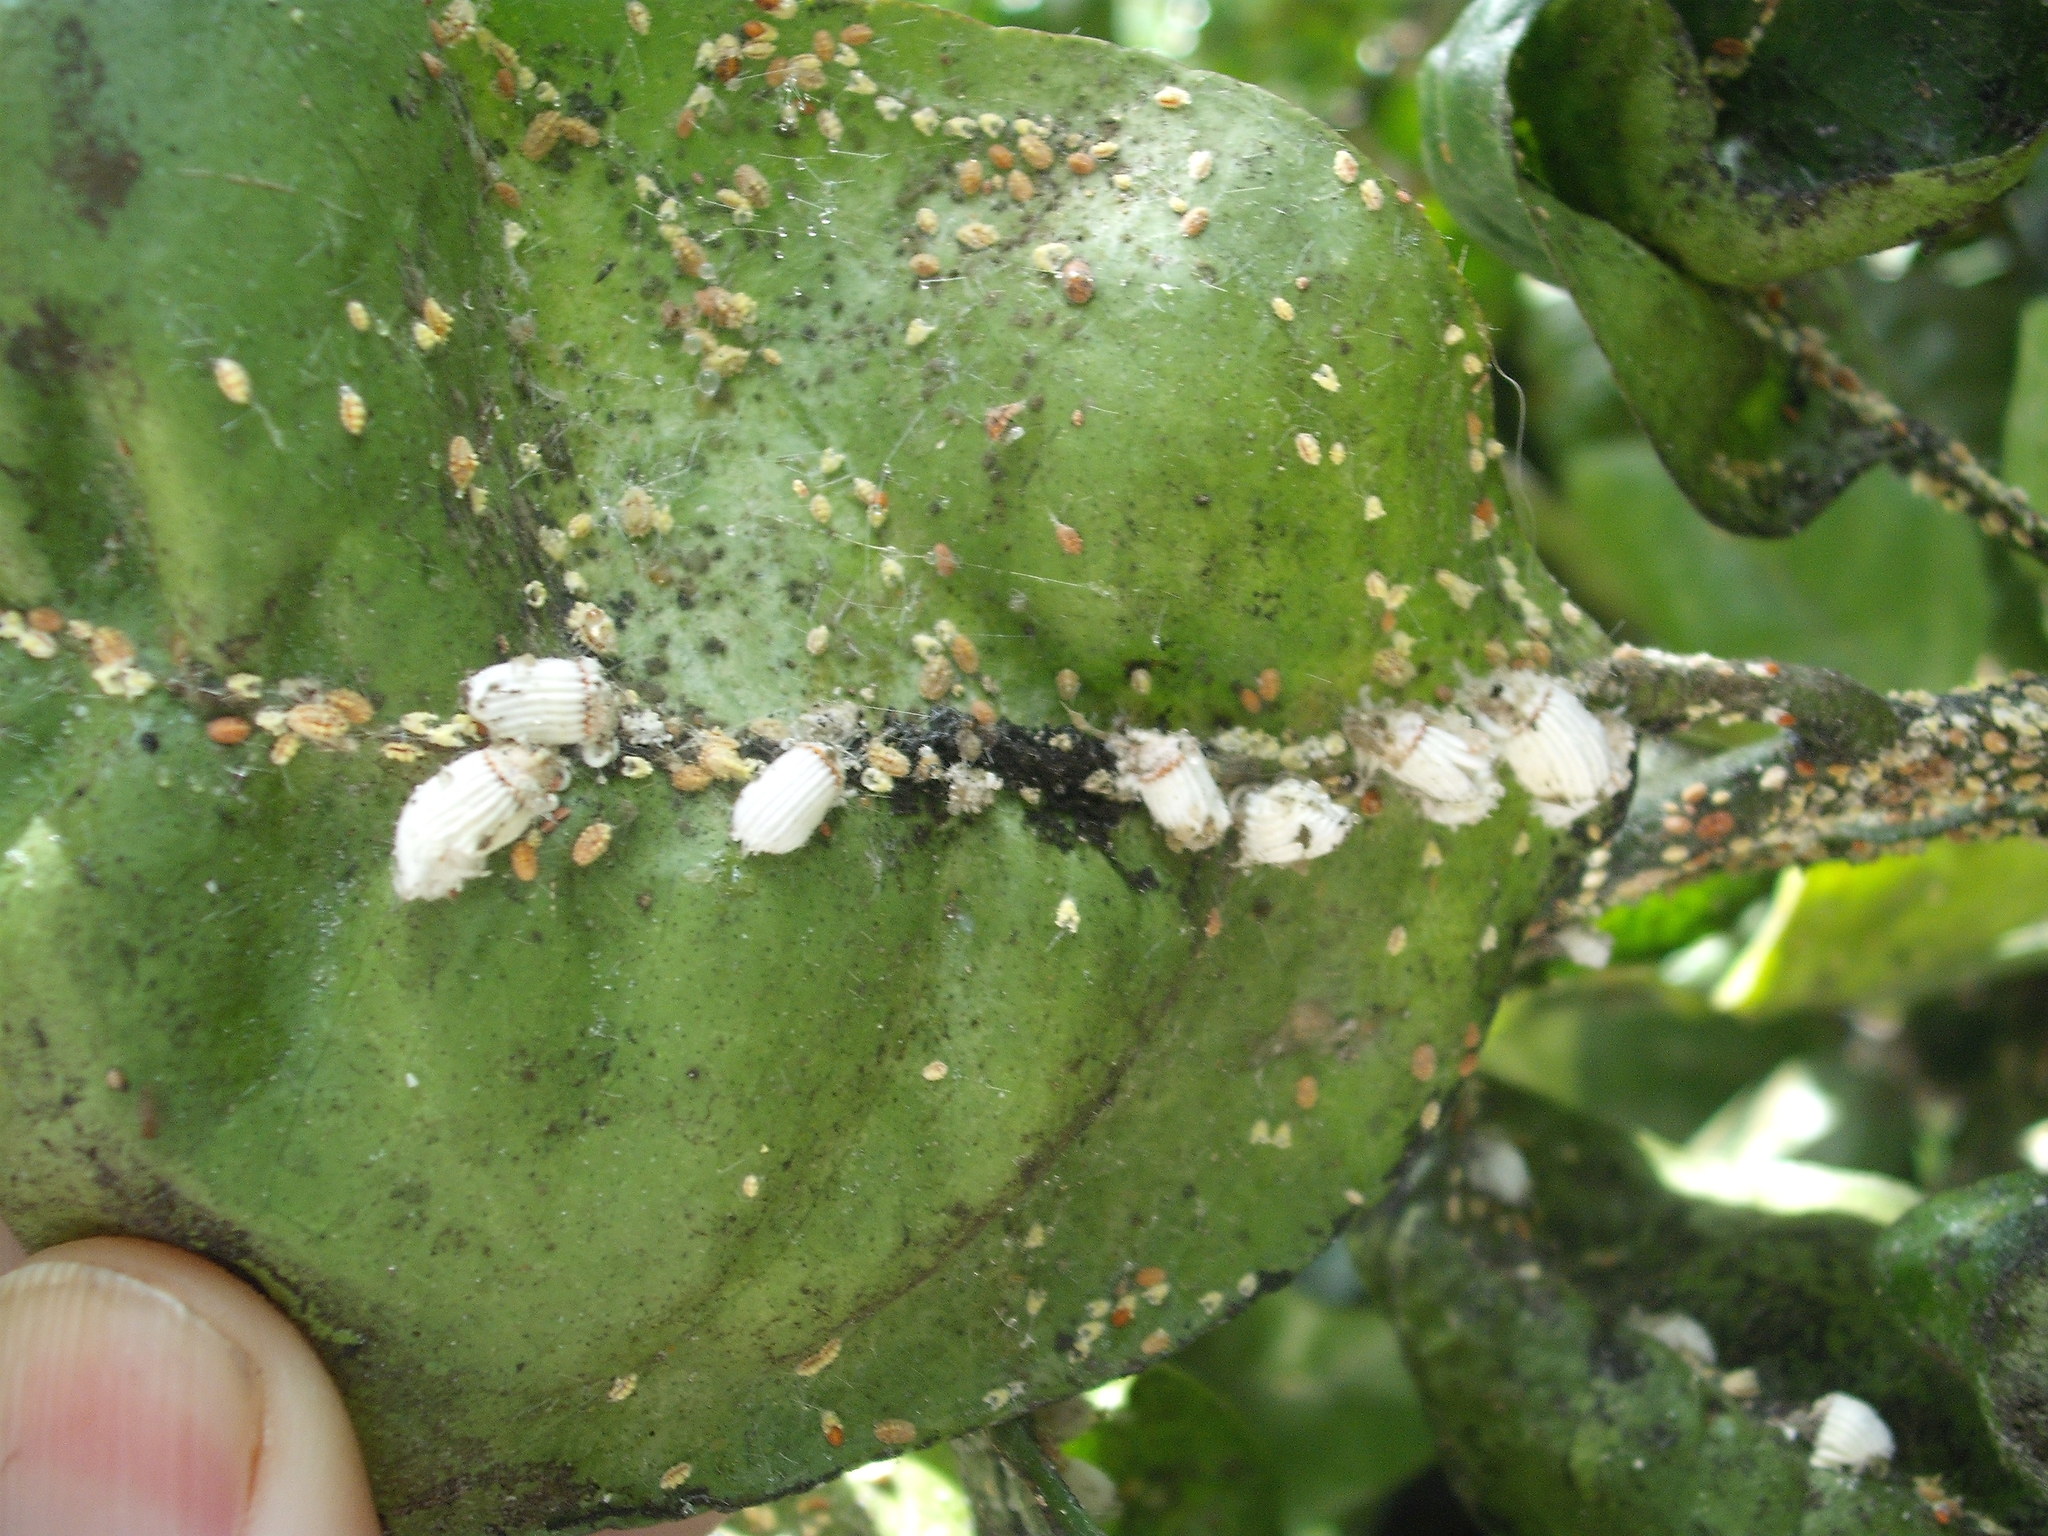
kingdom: Animalia
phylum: Arthropoda
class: Insecta
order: Hemiptera
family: Margarodidae
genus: Icerya
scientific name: Icerya purchasi
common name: Cottony cushion scale
